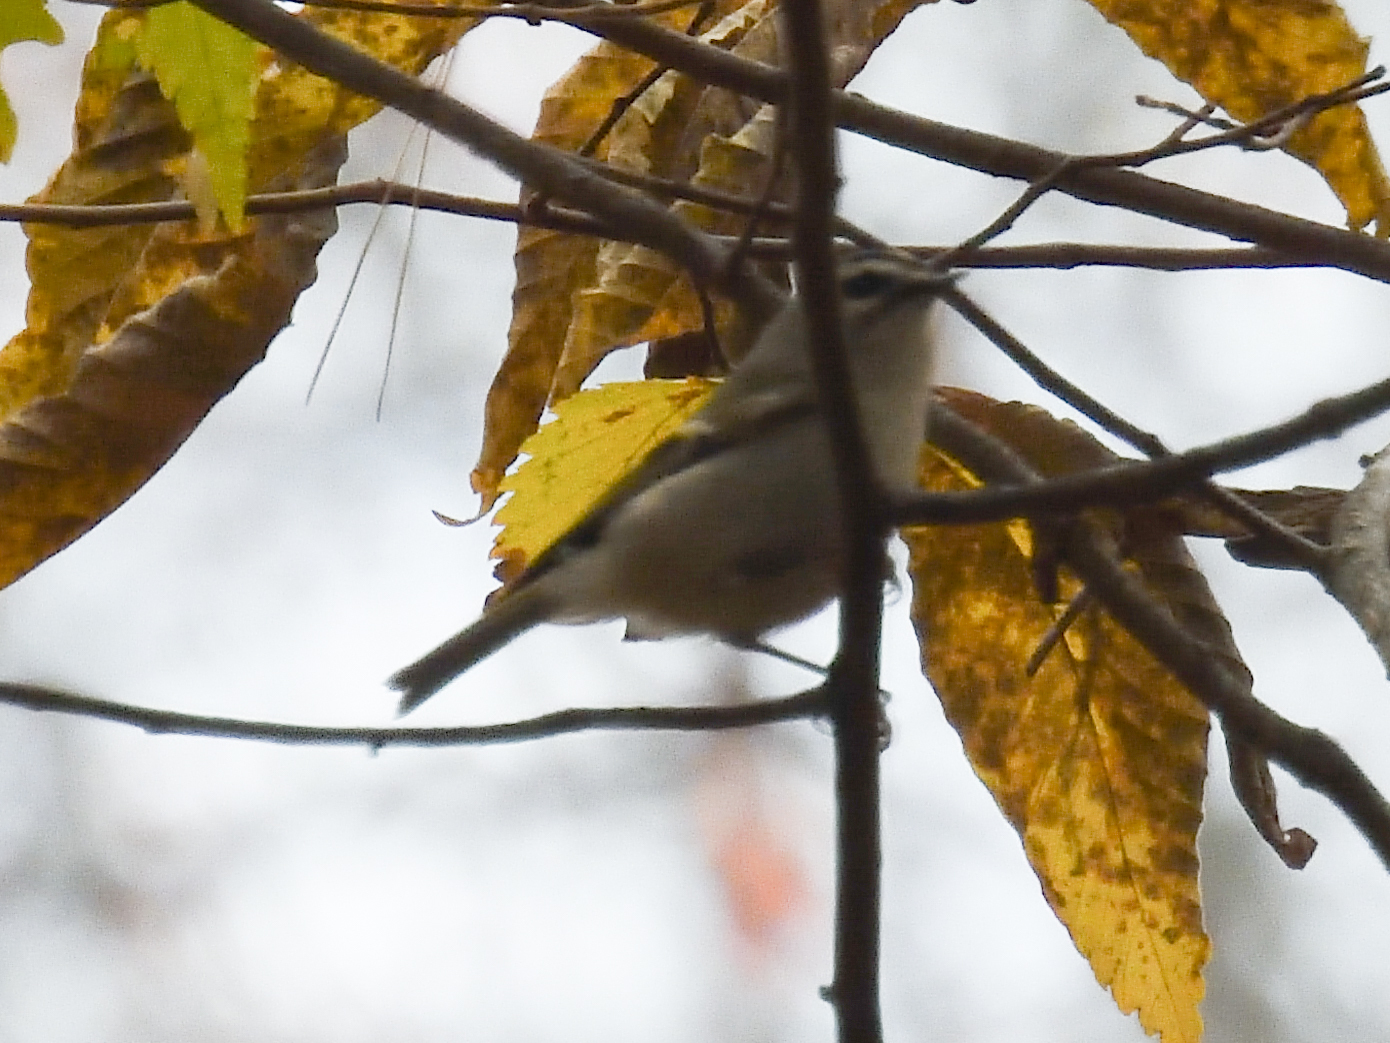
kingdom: Animalia
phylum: Chordata
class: Aves
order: Passeriformes
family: Regulidae
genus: Regulus
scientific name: Regulus satrapa
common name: Golden-crowned kinglet
